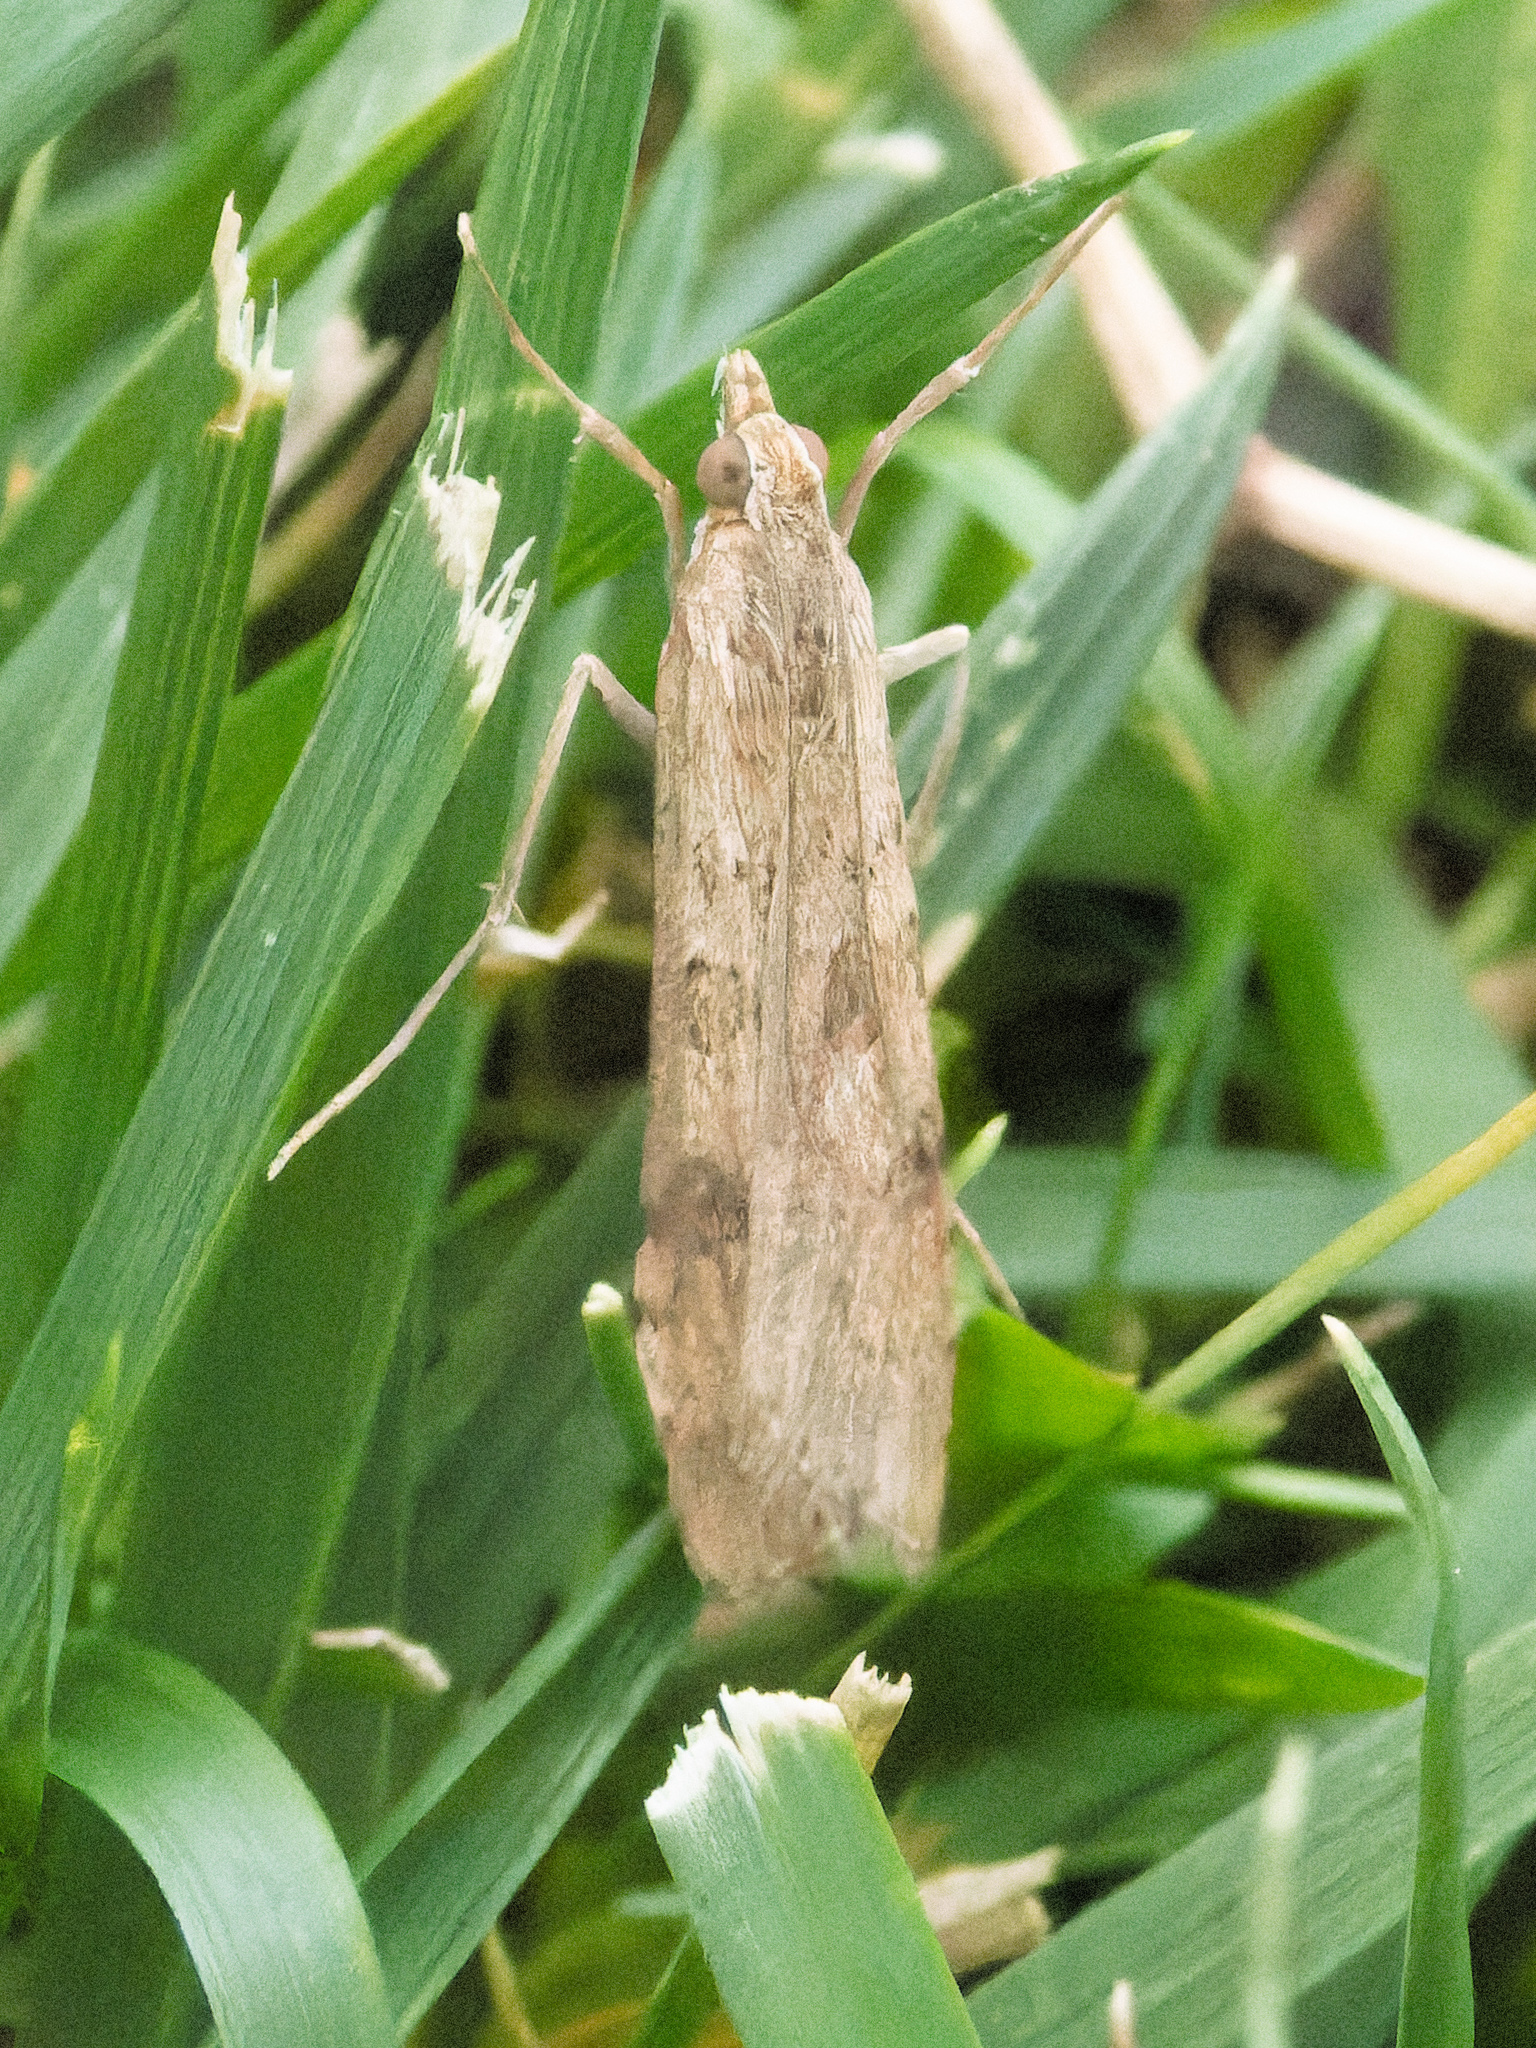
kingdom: Animalia
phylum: Arthropoda
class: Insecta
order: Lepidoptera
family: Crambidae
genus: Nomophila
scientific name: Nomophila nearctica
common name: American rush veneer
